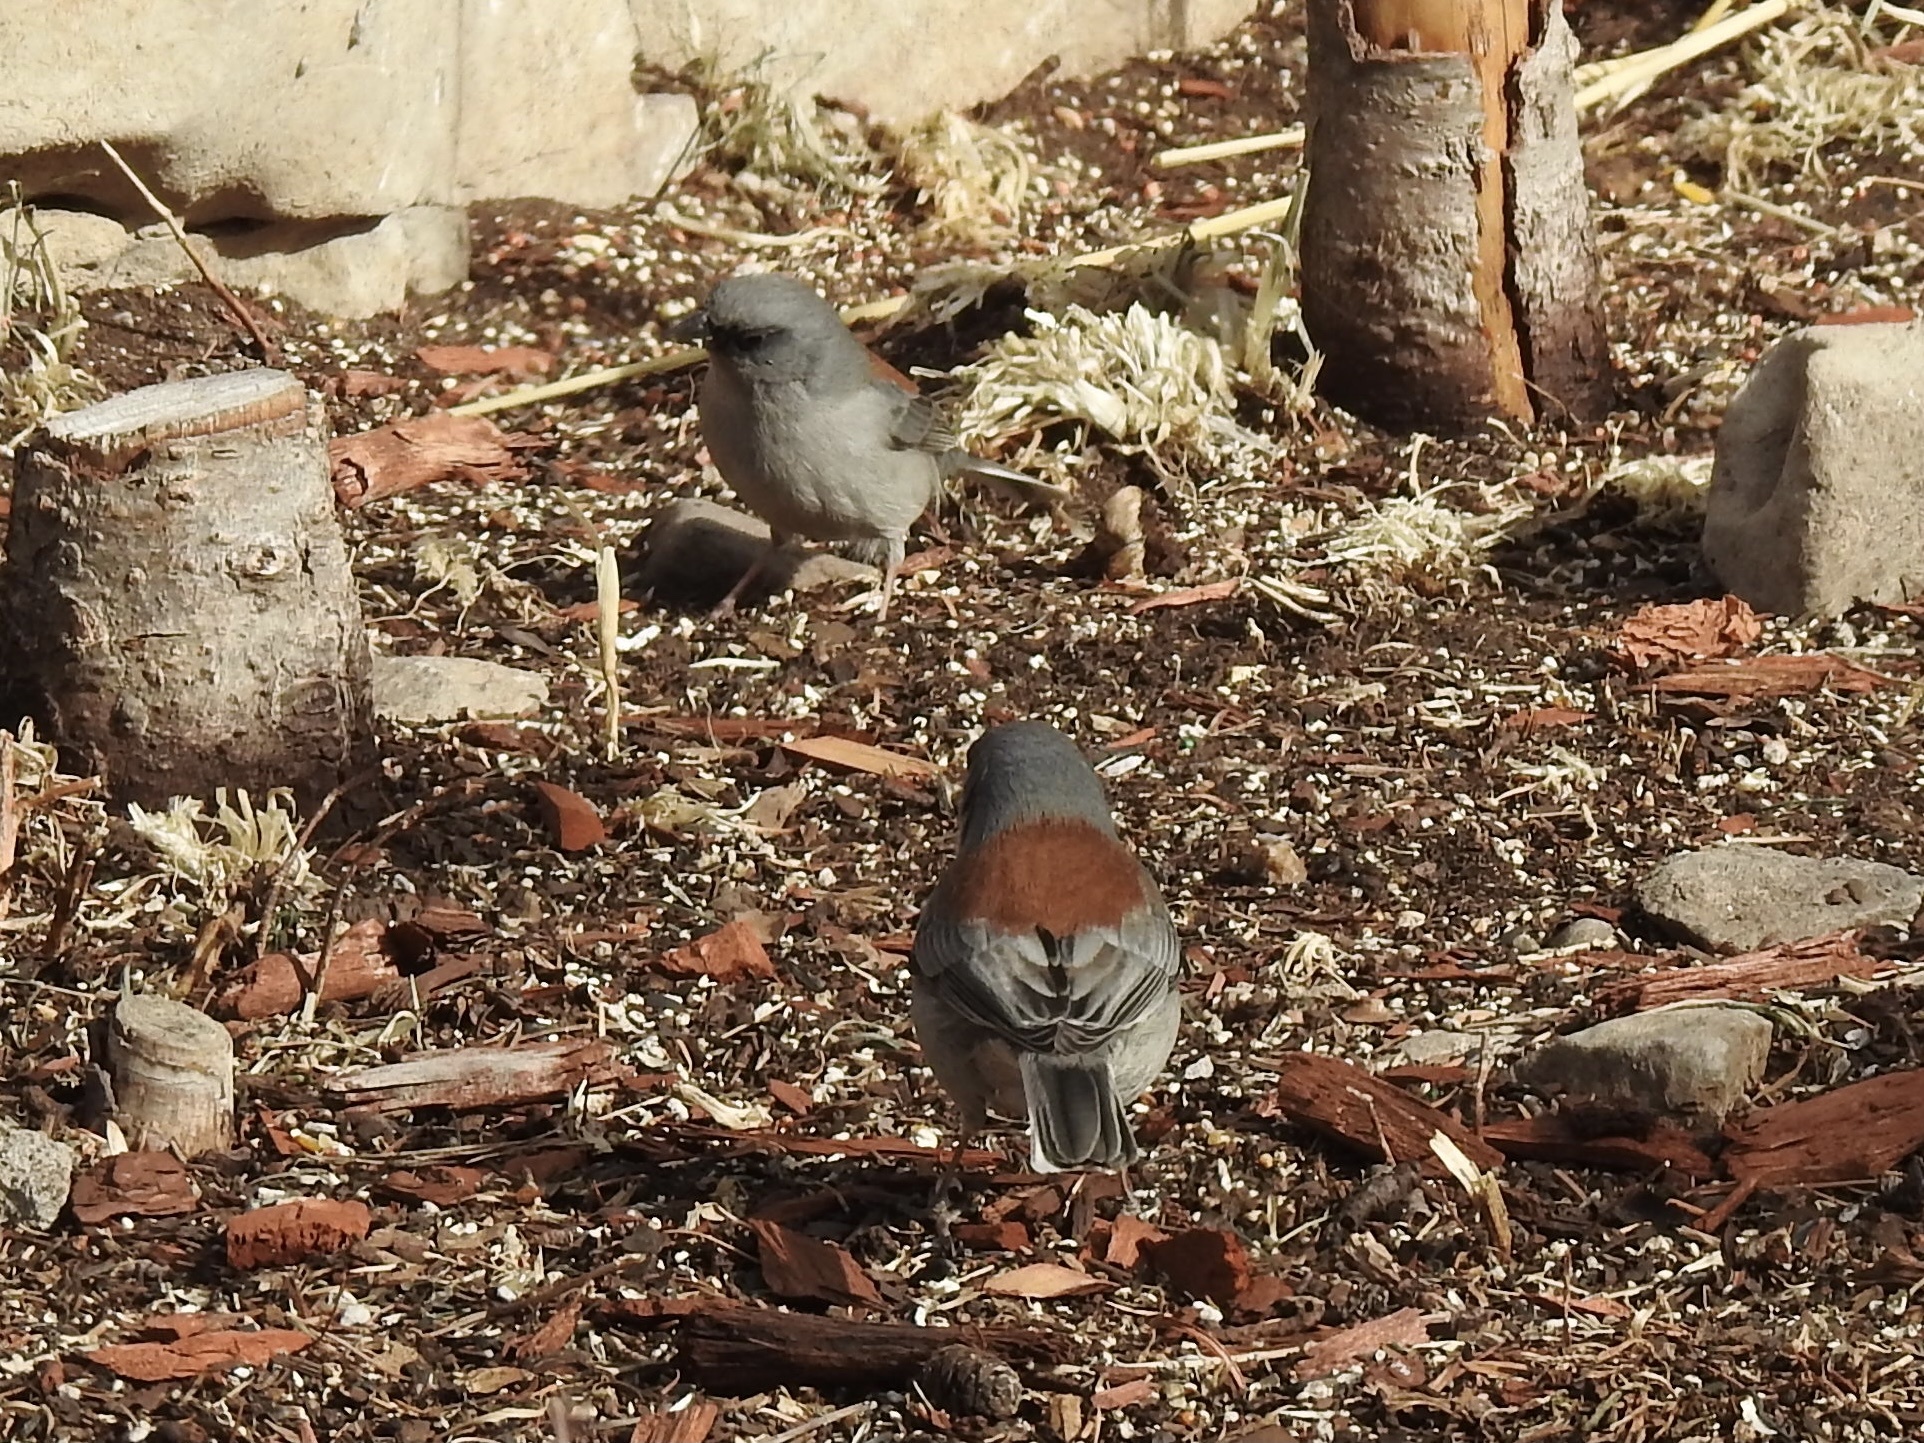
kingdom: Animalia
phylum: Chordata
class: Aves
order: Passeriformes
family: Passerellidae
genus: Junco
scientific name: Junco hyemalis
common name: Dark-eyed junco
